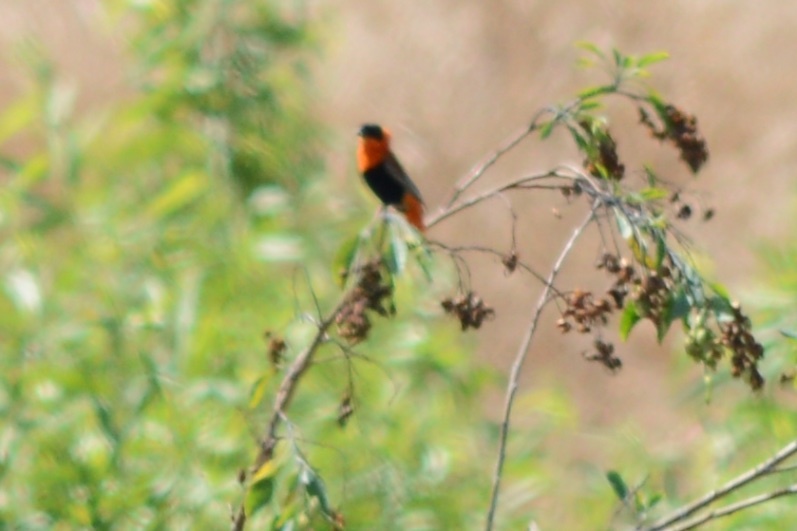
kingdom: Animalia
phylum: Chordata
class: Aves
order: Passeriformes
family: Ploceidae
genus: Euplectes
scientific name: Euplectes franciscanus
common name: Northern red bishop
